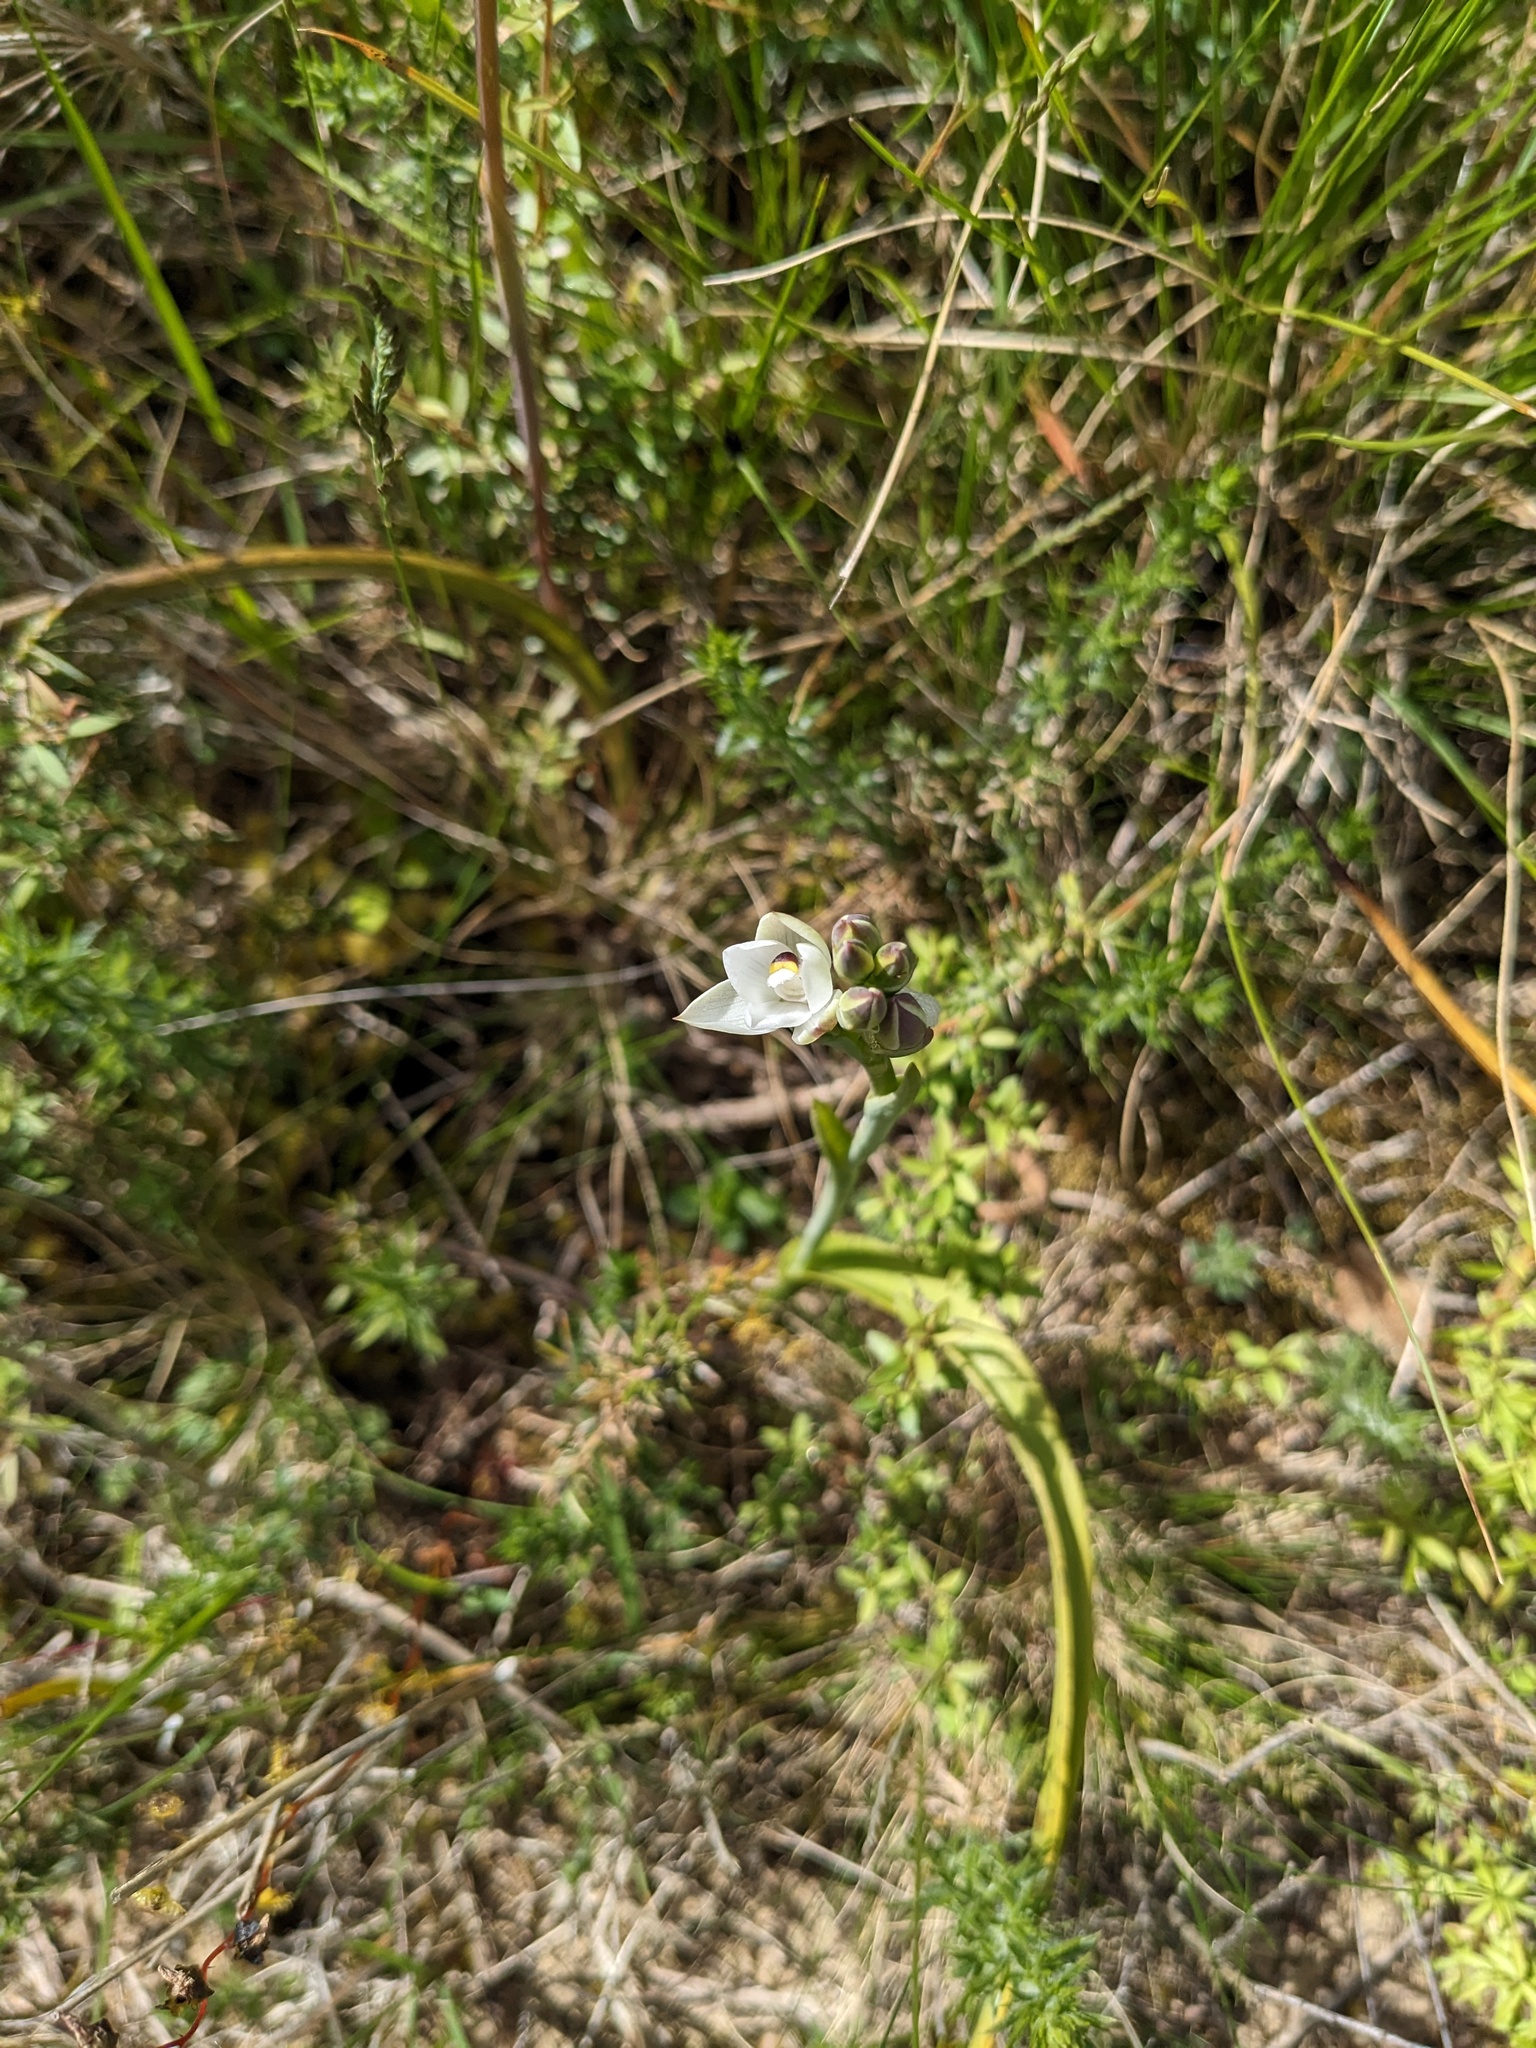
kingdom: Plantae
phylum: Tracheophyta
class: Liliopsida
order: Asparagales
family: Orchidaceae
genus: Thelymitra
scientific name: Thelymitra longifolia
